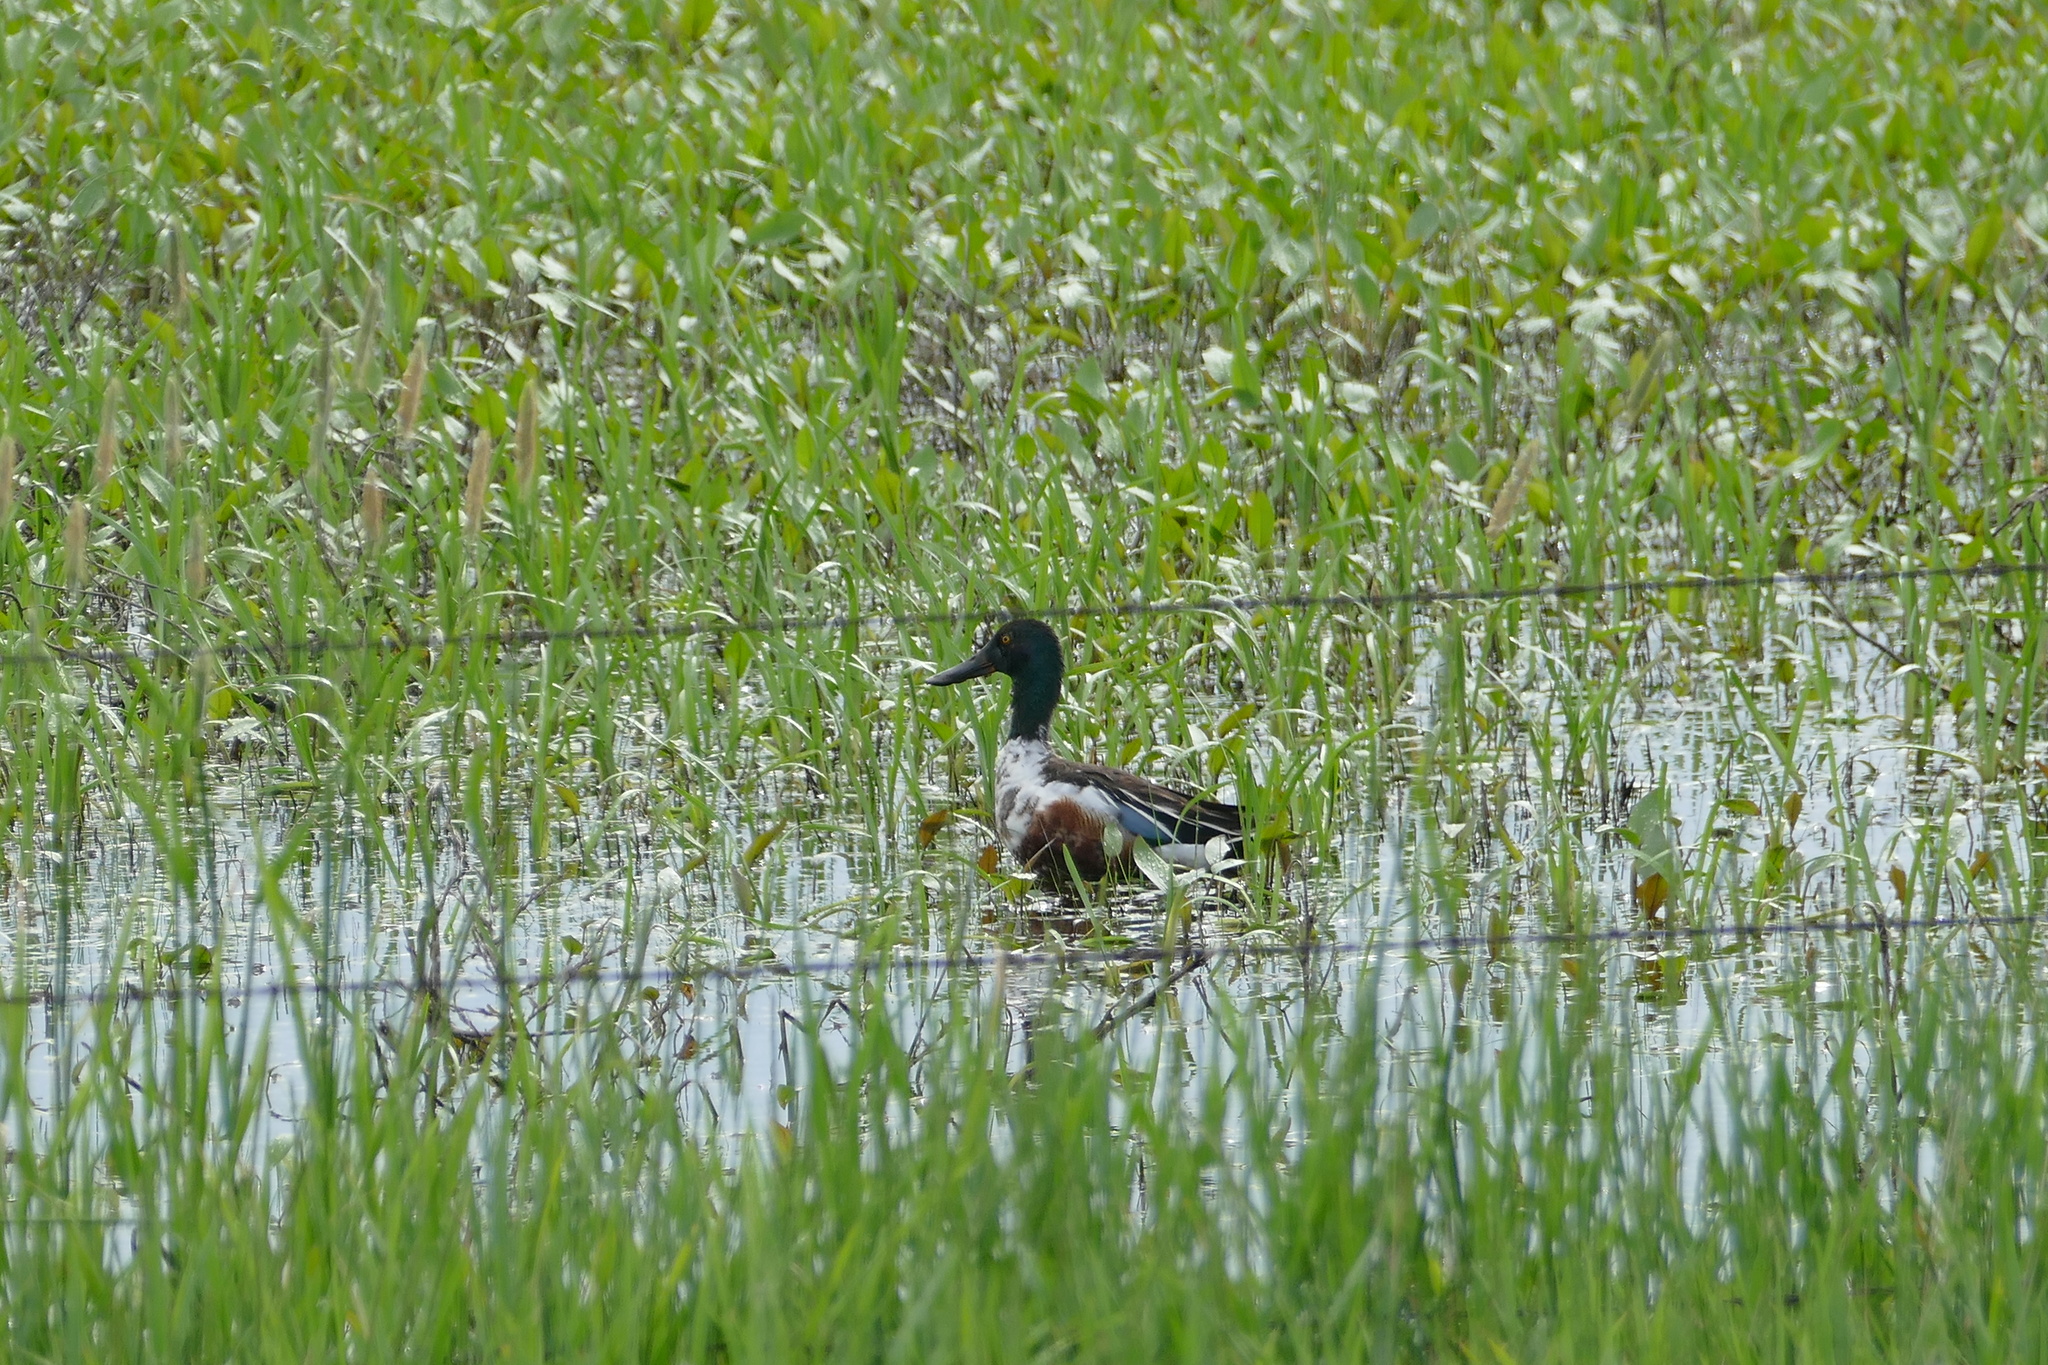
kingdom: Animalia
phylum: Chordata
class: Aves
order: Anseriformes
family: Anatidae
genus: Spatula
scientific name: Spatula clypeata
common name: Northern shoveler
